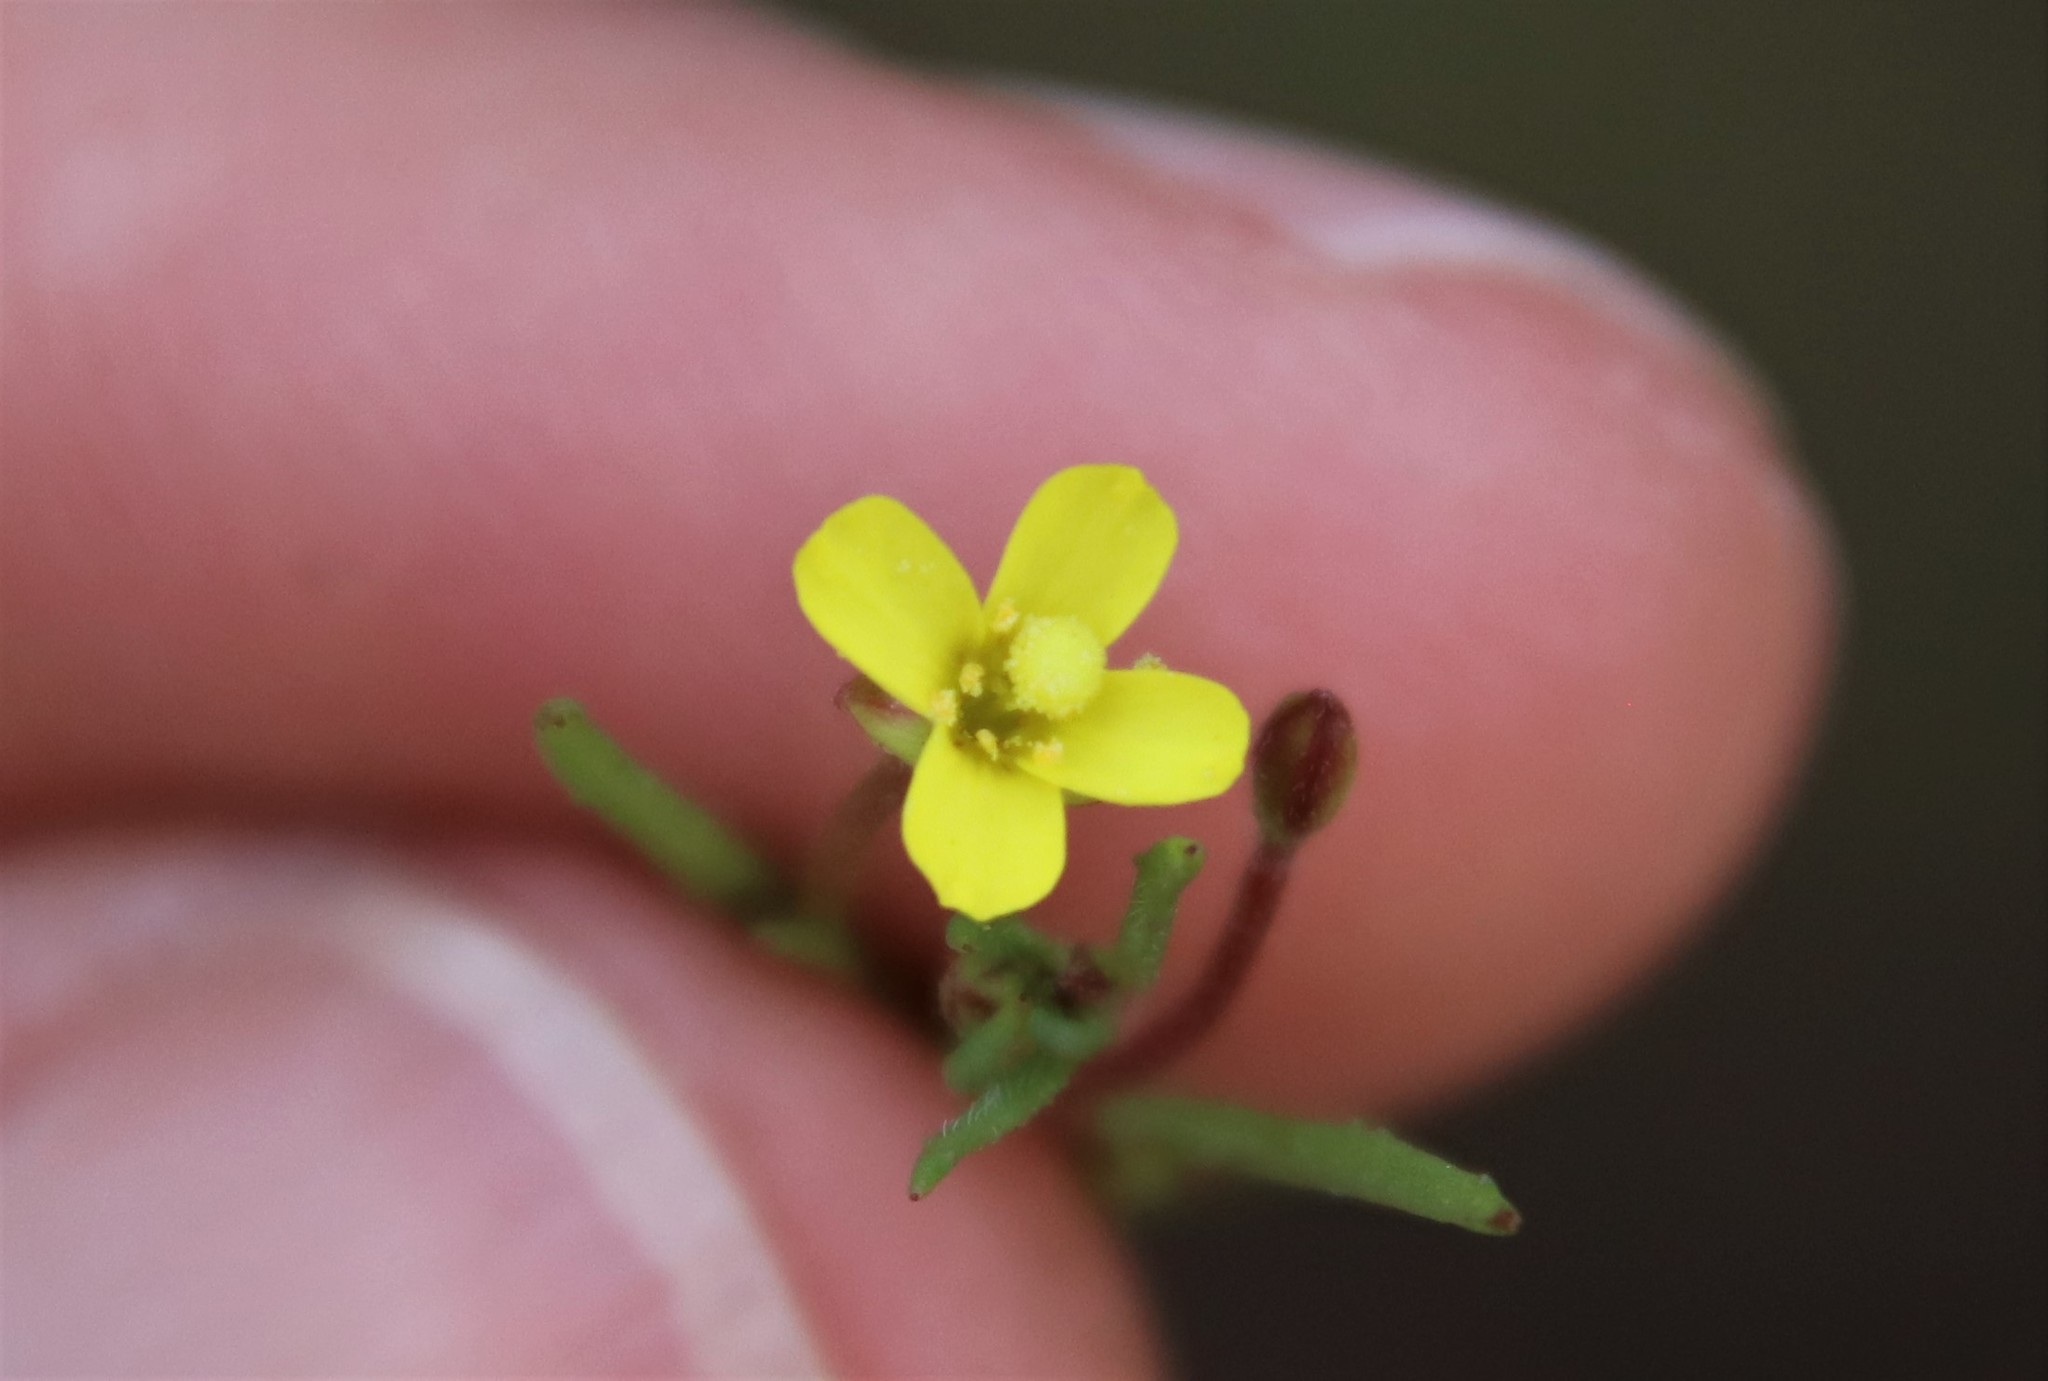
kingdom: Plantae
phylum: Tracheophyta
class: Magnoliopsida
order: Myrtales
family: Onagraceae
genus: Camissonia
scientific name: Camissonia strigulosa
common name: Contorted-primrose
